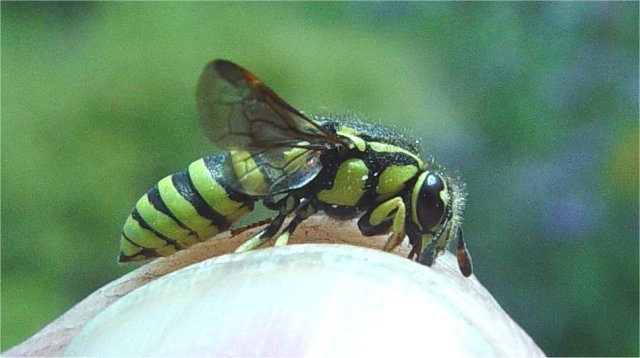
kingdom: Animalia
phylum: Arthropoda
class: Insecta
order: Hymenoptera
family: Masaridae
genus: Pseudomasaris
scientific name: Pseudomasaris macswaini
